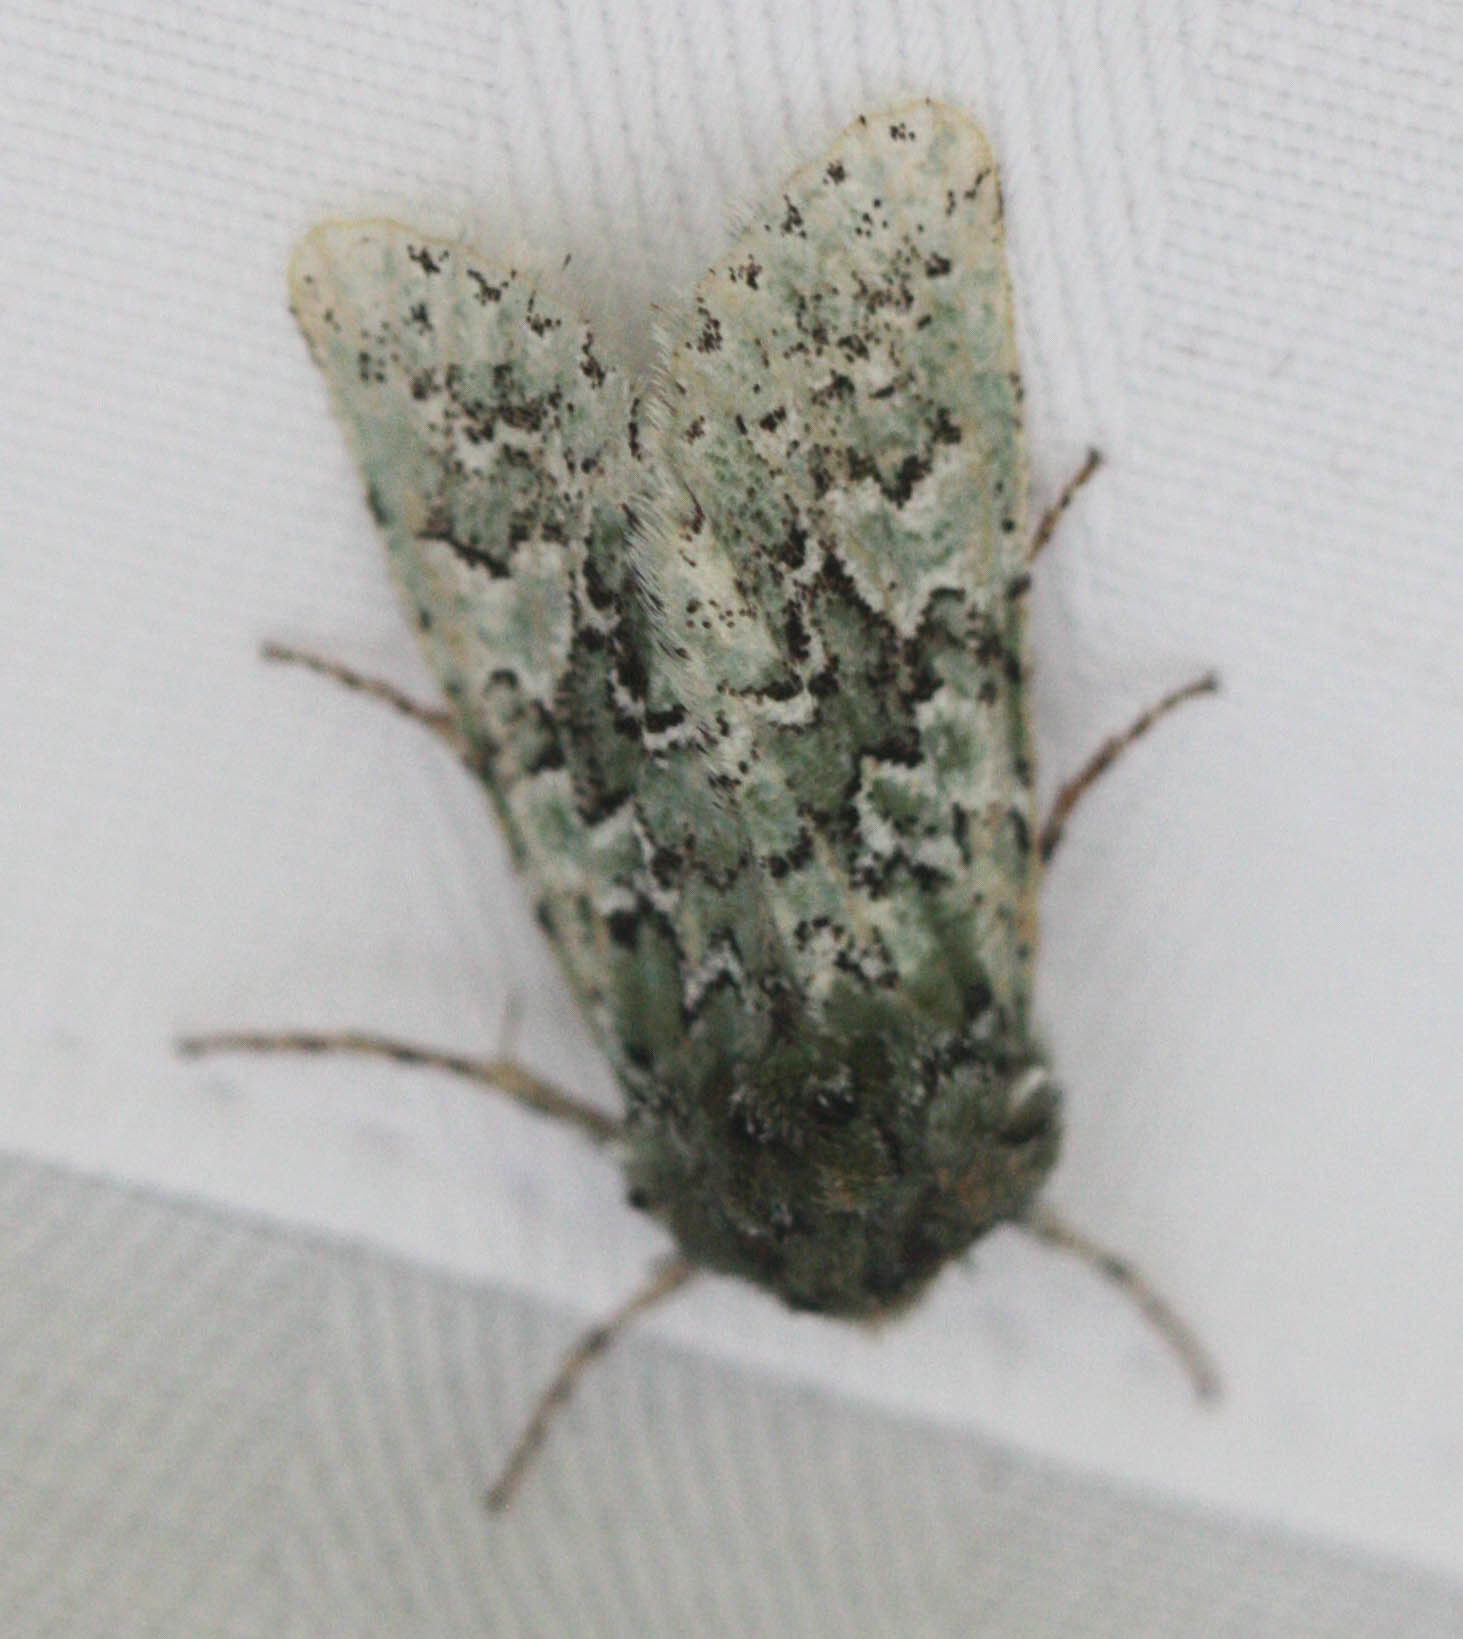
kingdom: Animalia
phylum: Arthropoda
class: Insecta
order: Lepidoptera
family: Noctuidae
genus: Feralia
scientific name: Feralia februalis
